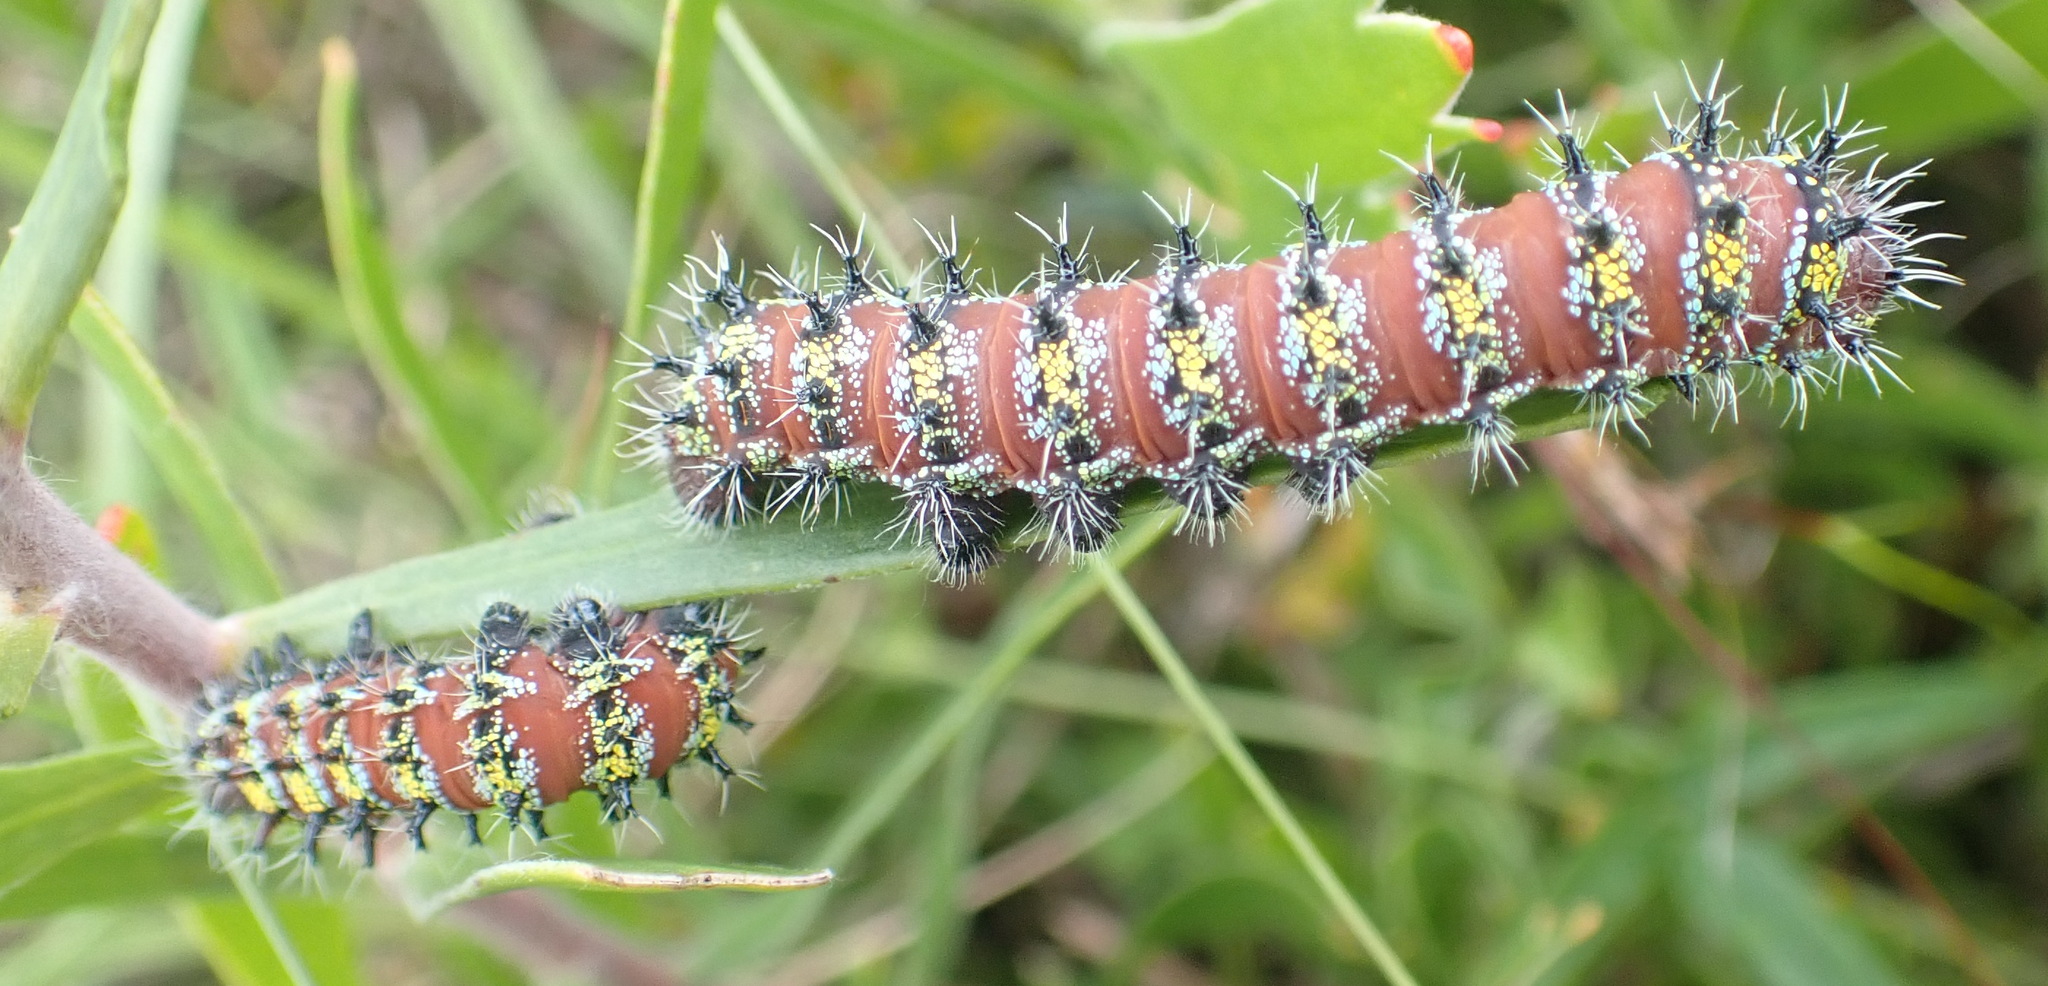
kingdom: Animalia
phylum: Arthropoda
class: Insecta
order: Lepidoptera
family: Saturniidae
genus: Nudaurelia
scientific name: Nudaurelia cytherea
